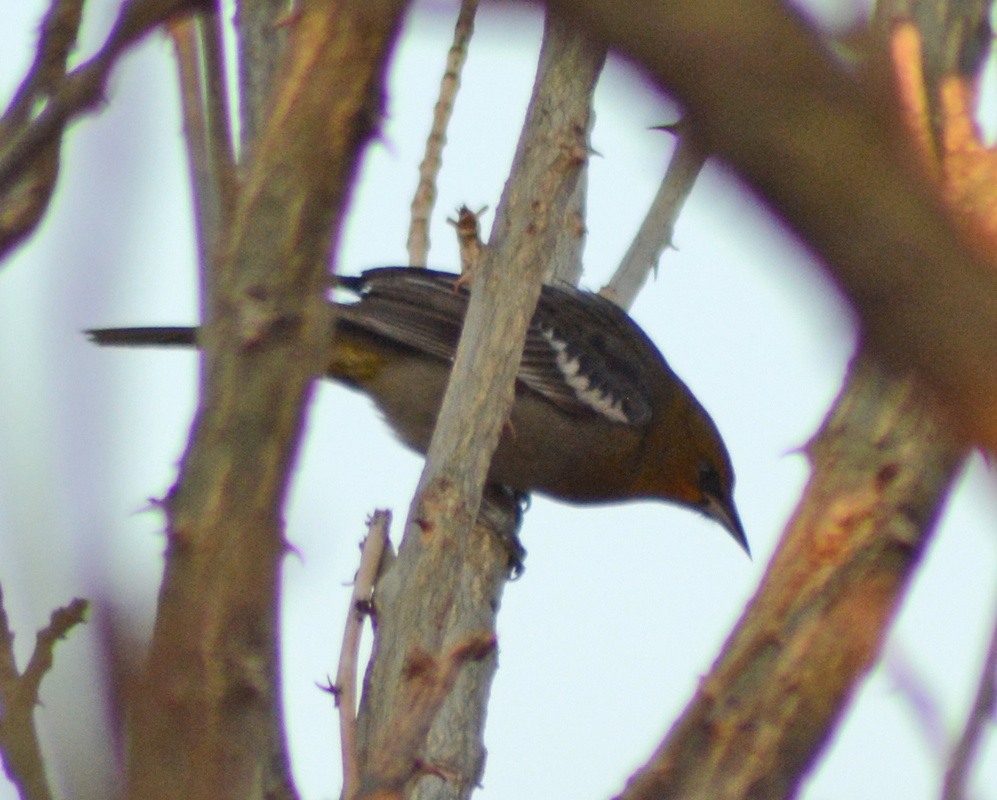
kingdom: Animalia
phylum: Chordata
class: Aves
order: Passeriformes
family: Icteridae
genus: Icterus
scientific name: Icterus abeillei
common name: Black-backed oriole
